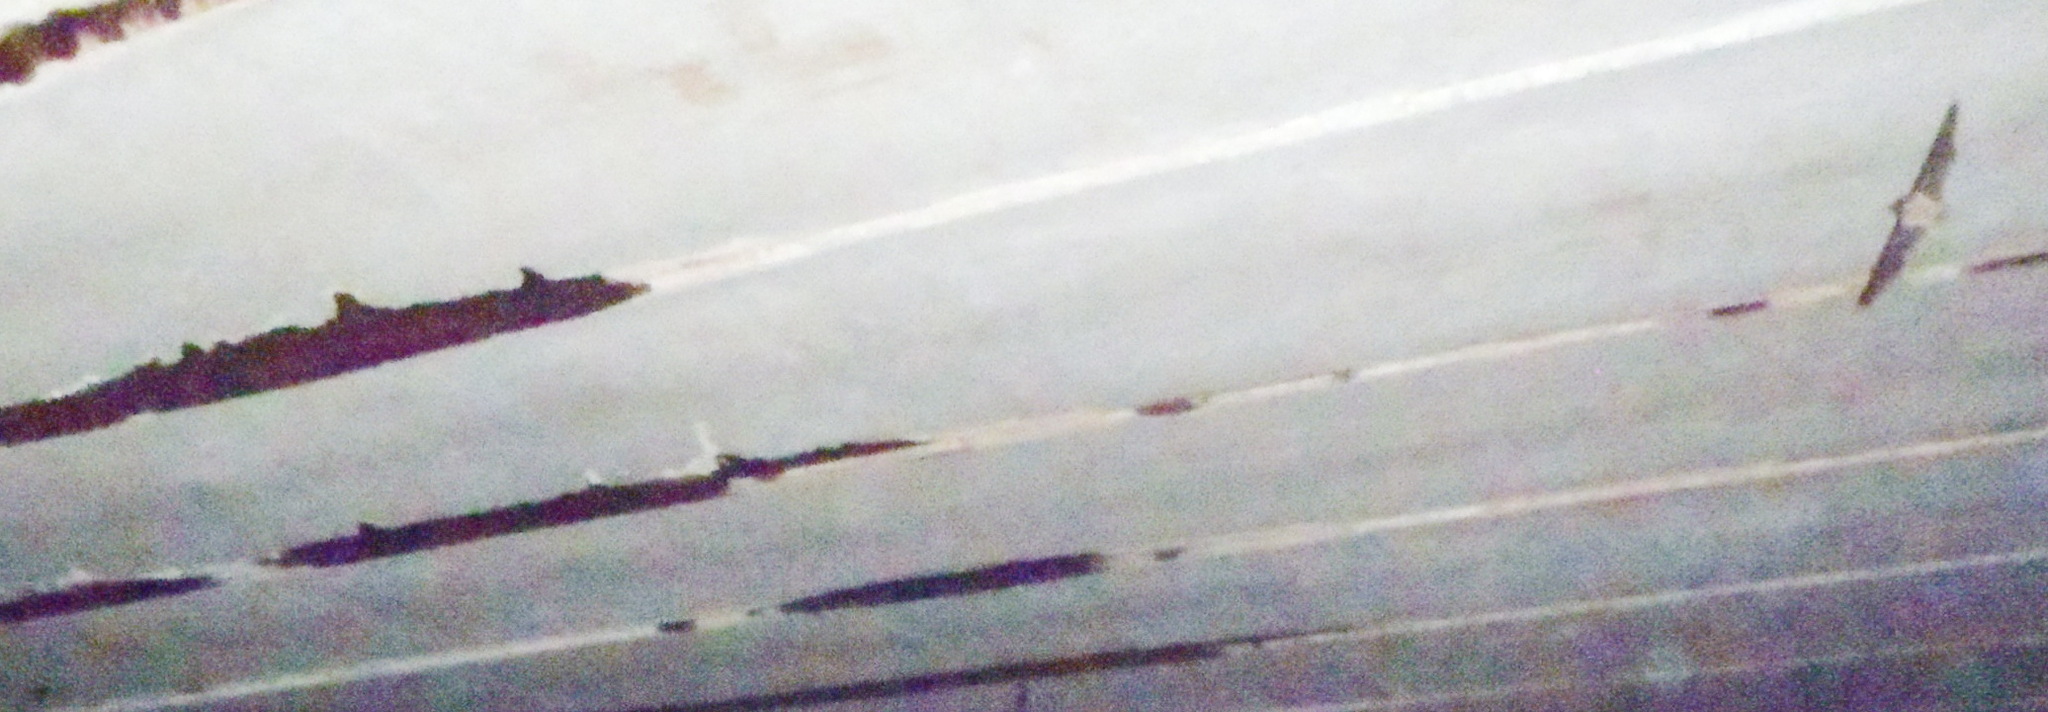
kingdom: Animalia
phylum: Chordata
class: Mammalia
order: Chiroptera
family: Molossidae
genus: Tadarida
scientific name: Tadarida brasiliensis
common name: Mexican free-tailed bat
